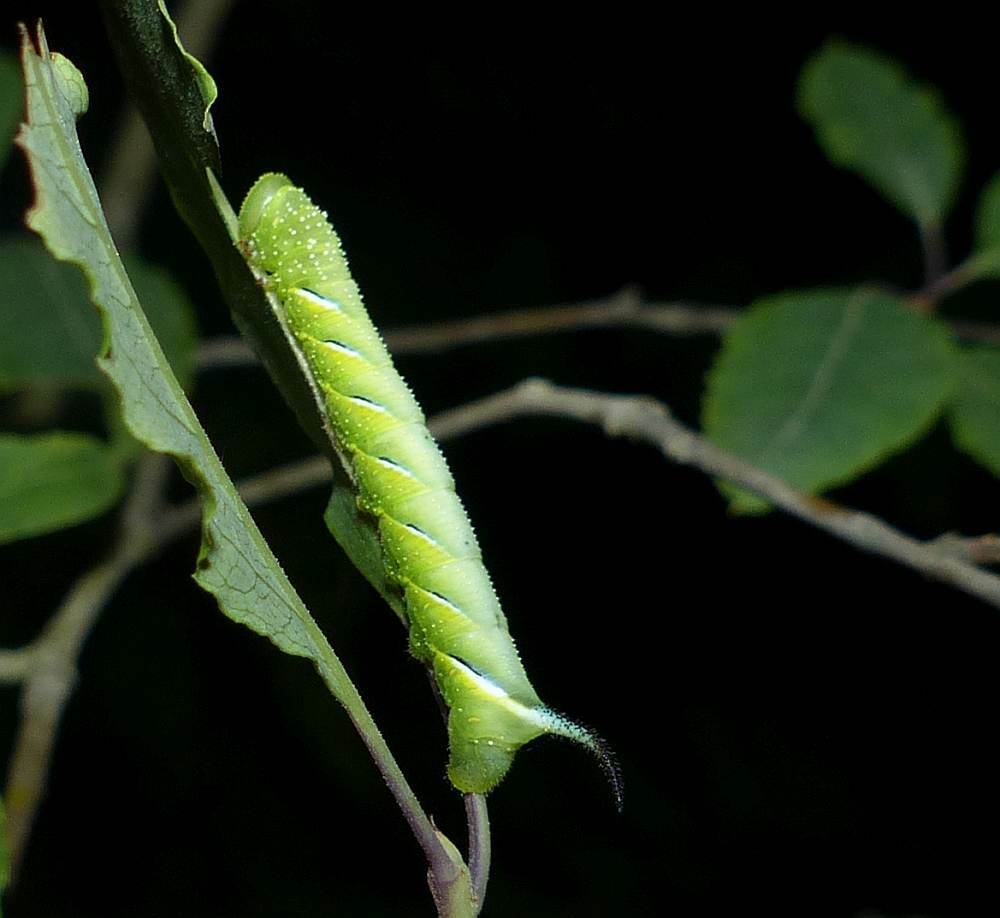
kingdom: Animalia
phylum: Arthropoda
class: Insecta
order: Lepidoptera
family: Sphingidae
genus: Sphinx
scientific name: Sphinx kalmiae
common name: Laurel sphinx
